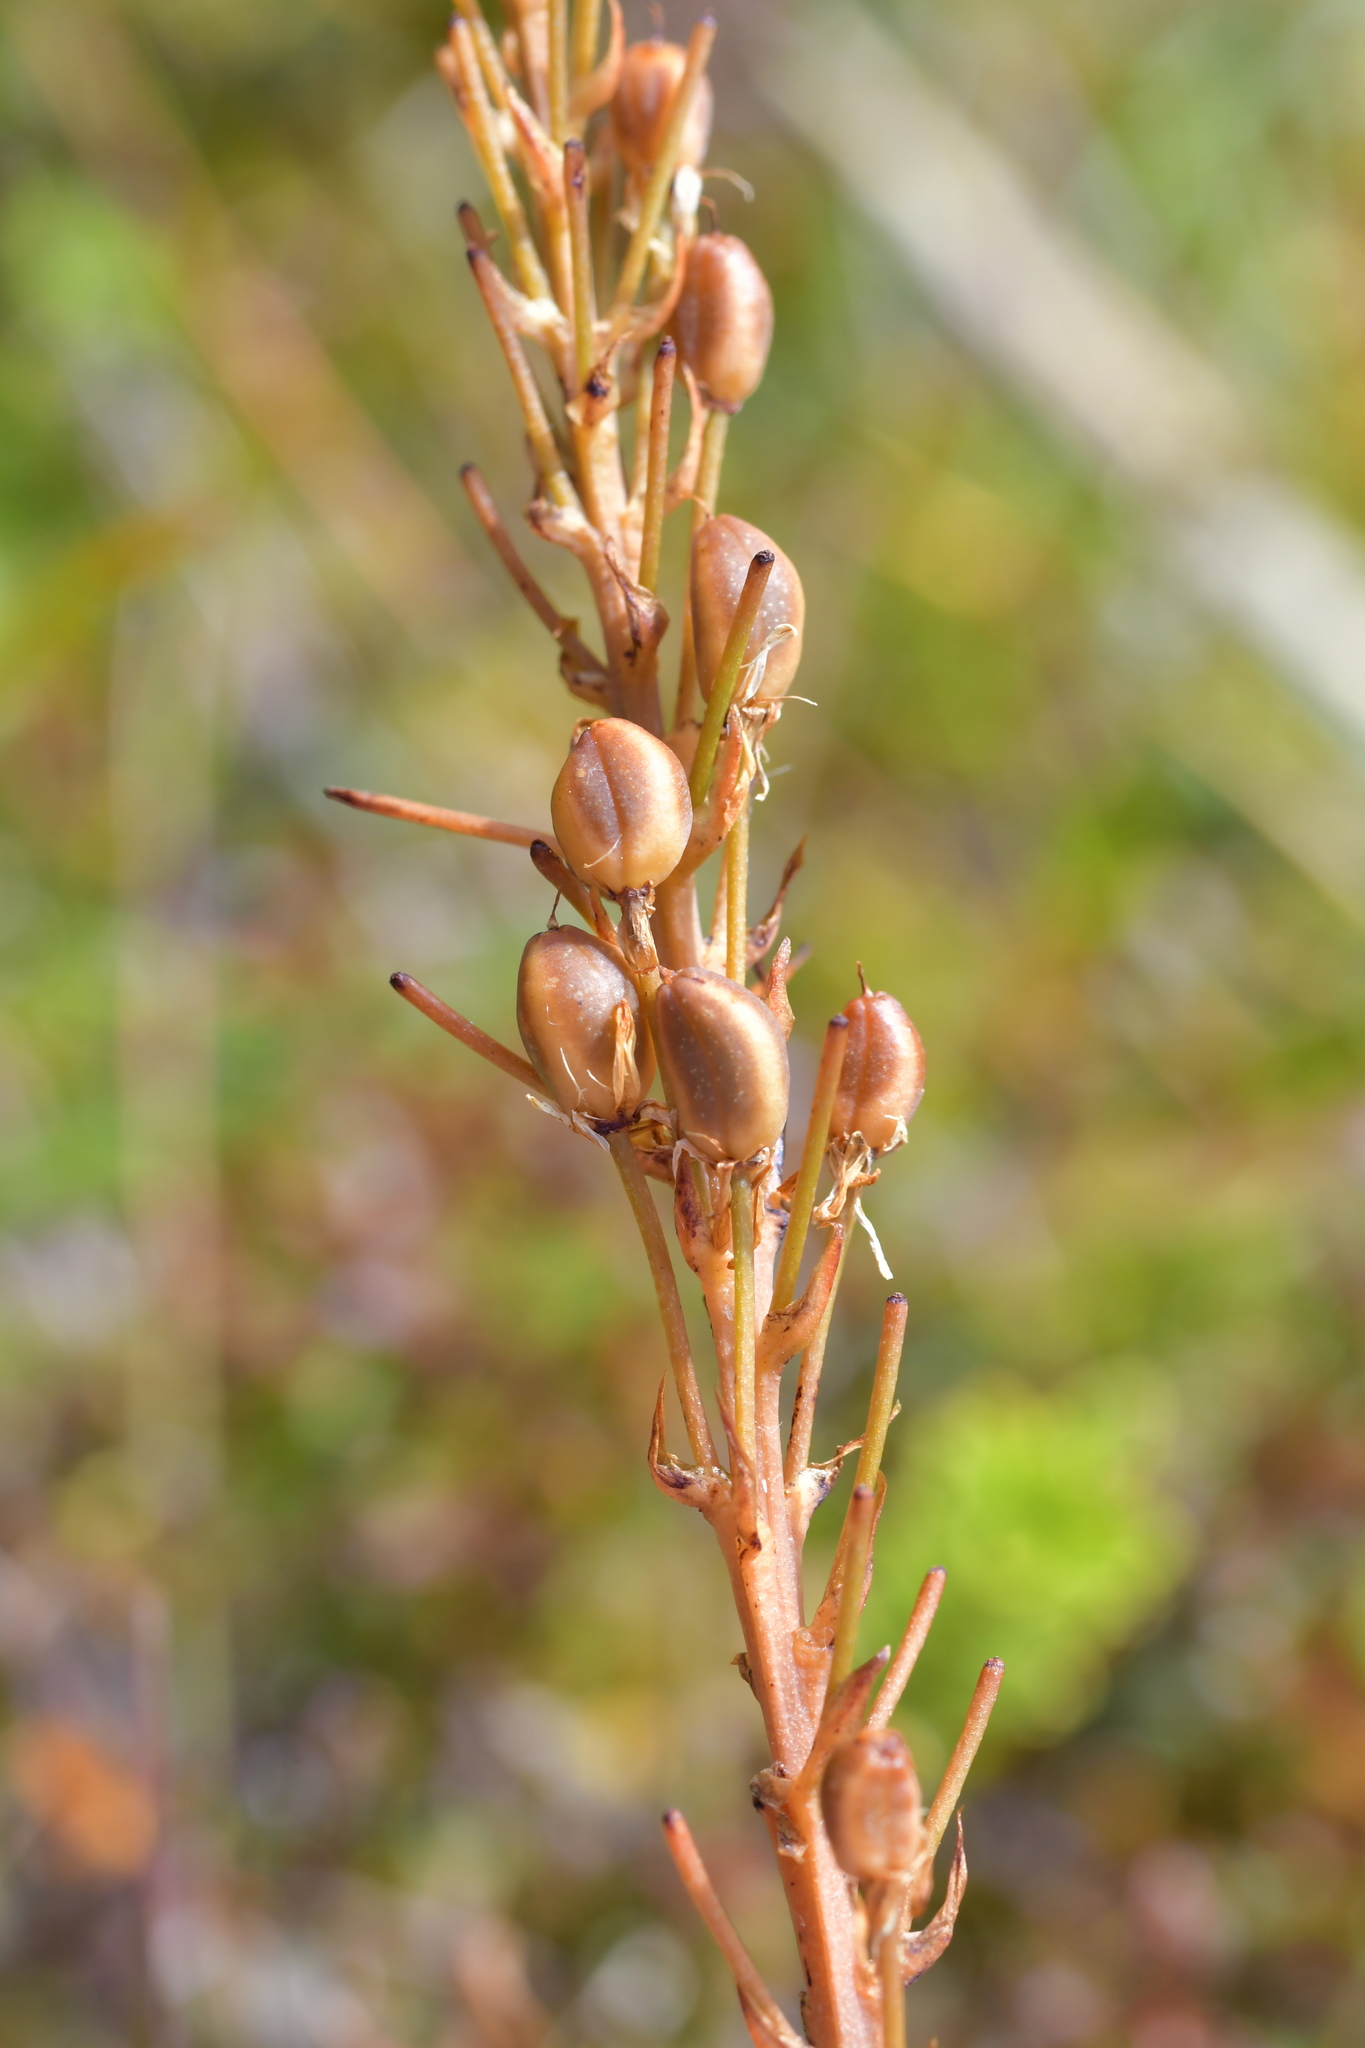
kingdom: Plantae
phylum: Tracheophyta
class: Liliopsida
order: Asparagales
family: Asphodelaceae
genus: Bulbinella
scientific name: Bulbinella angustifolia
